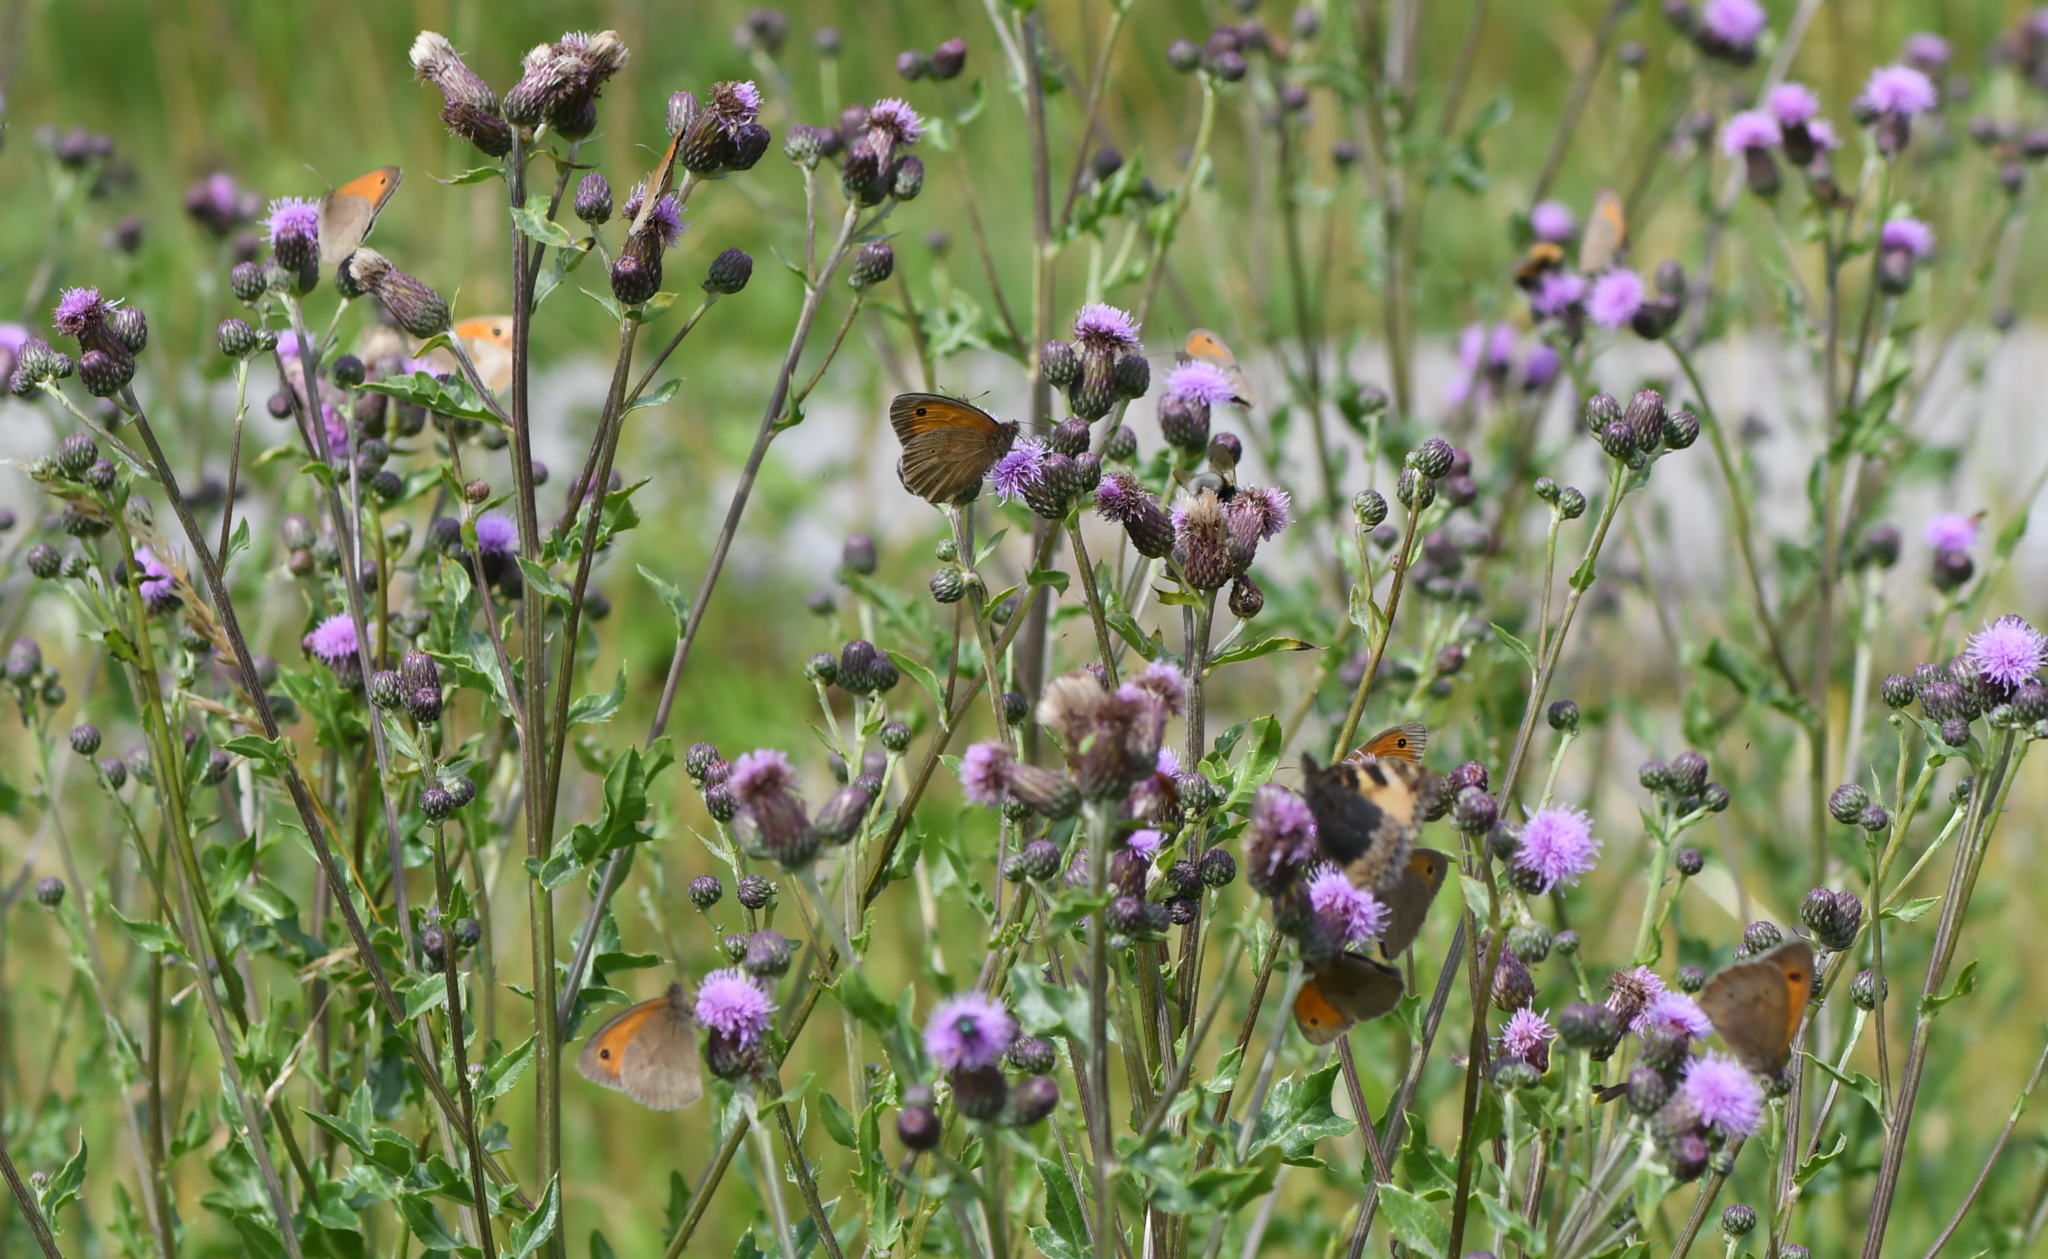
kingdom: Animalia
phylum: Arthropoda
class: Insecta
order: Lepidoptera
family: Nymphalidae
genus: Maniola
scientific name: Maniola jurtina
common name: Meadow brown
